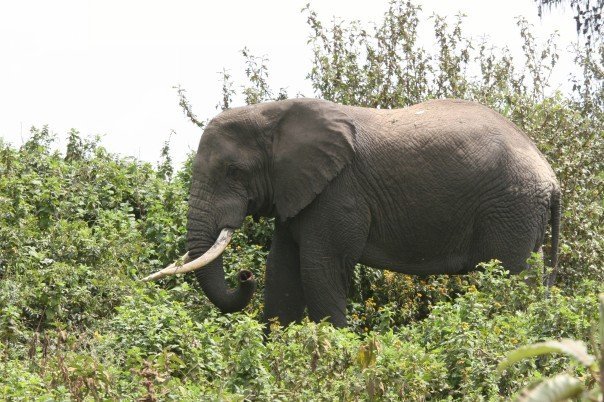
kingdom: Animalia
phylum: Chordata
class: Mammalia
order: Proboscidea
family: Elephantidae
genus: Loxodonta
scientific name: Loxodonta africana
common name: African elephant
